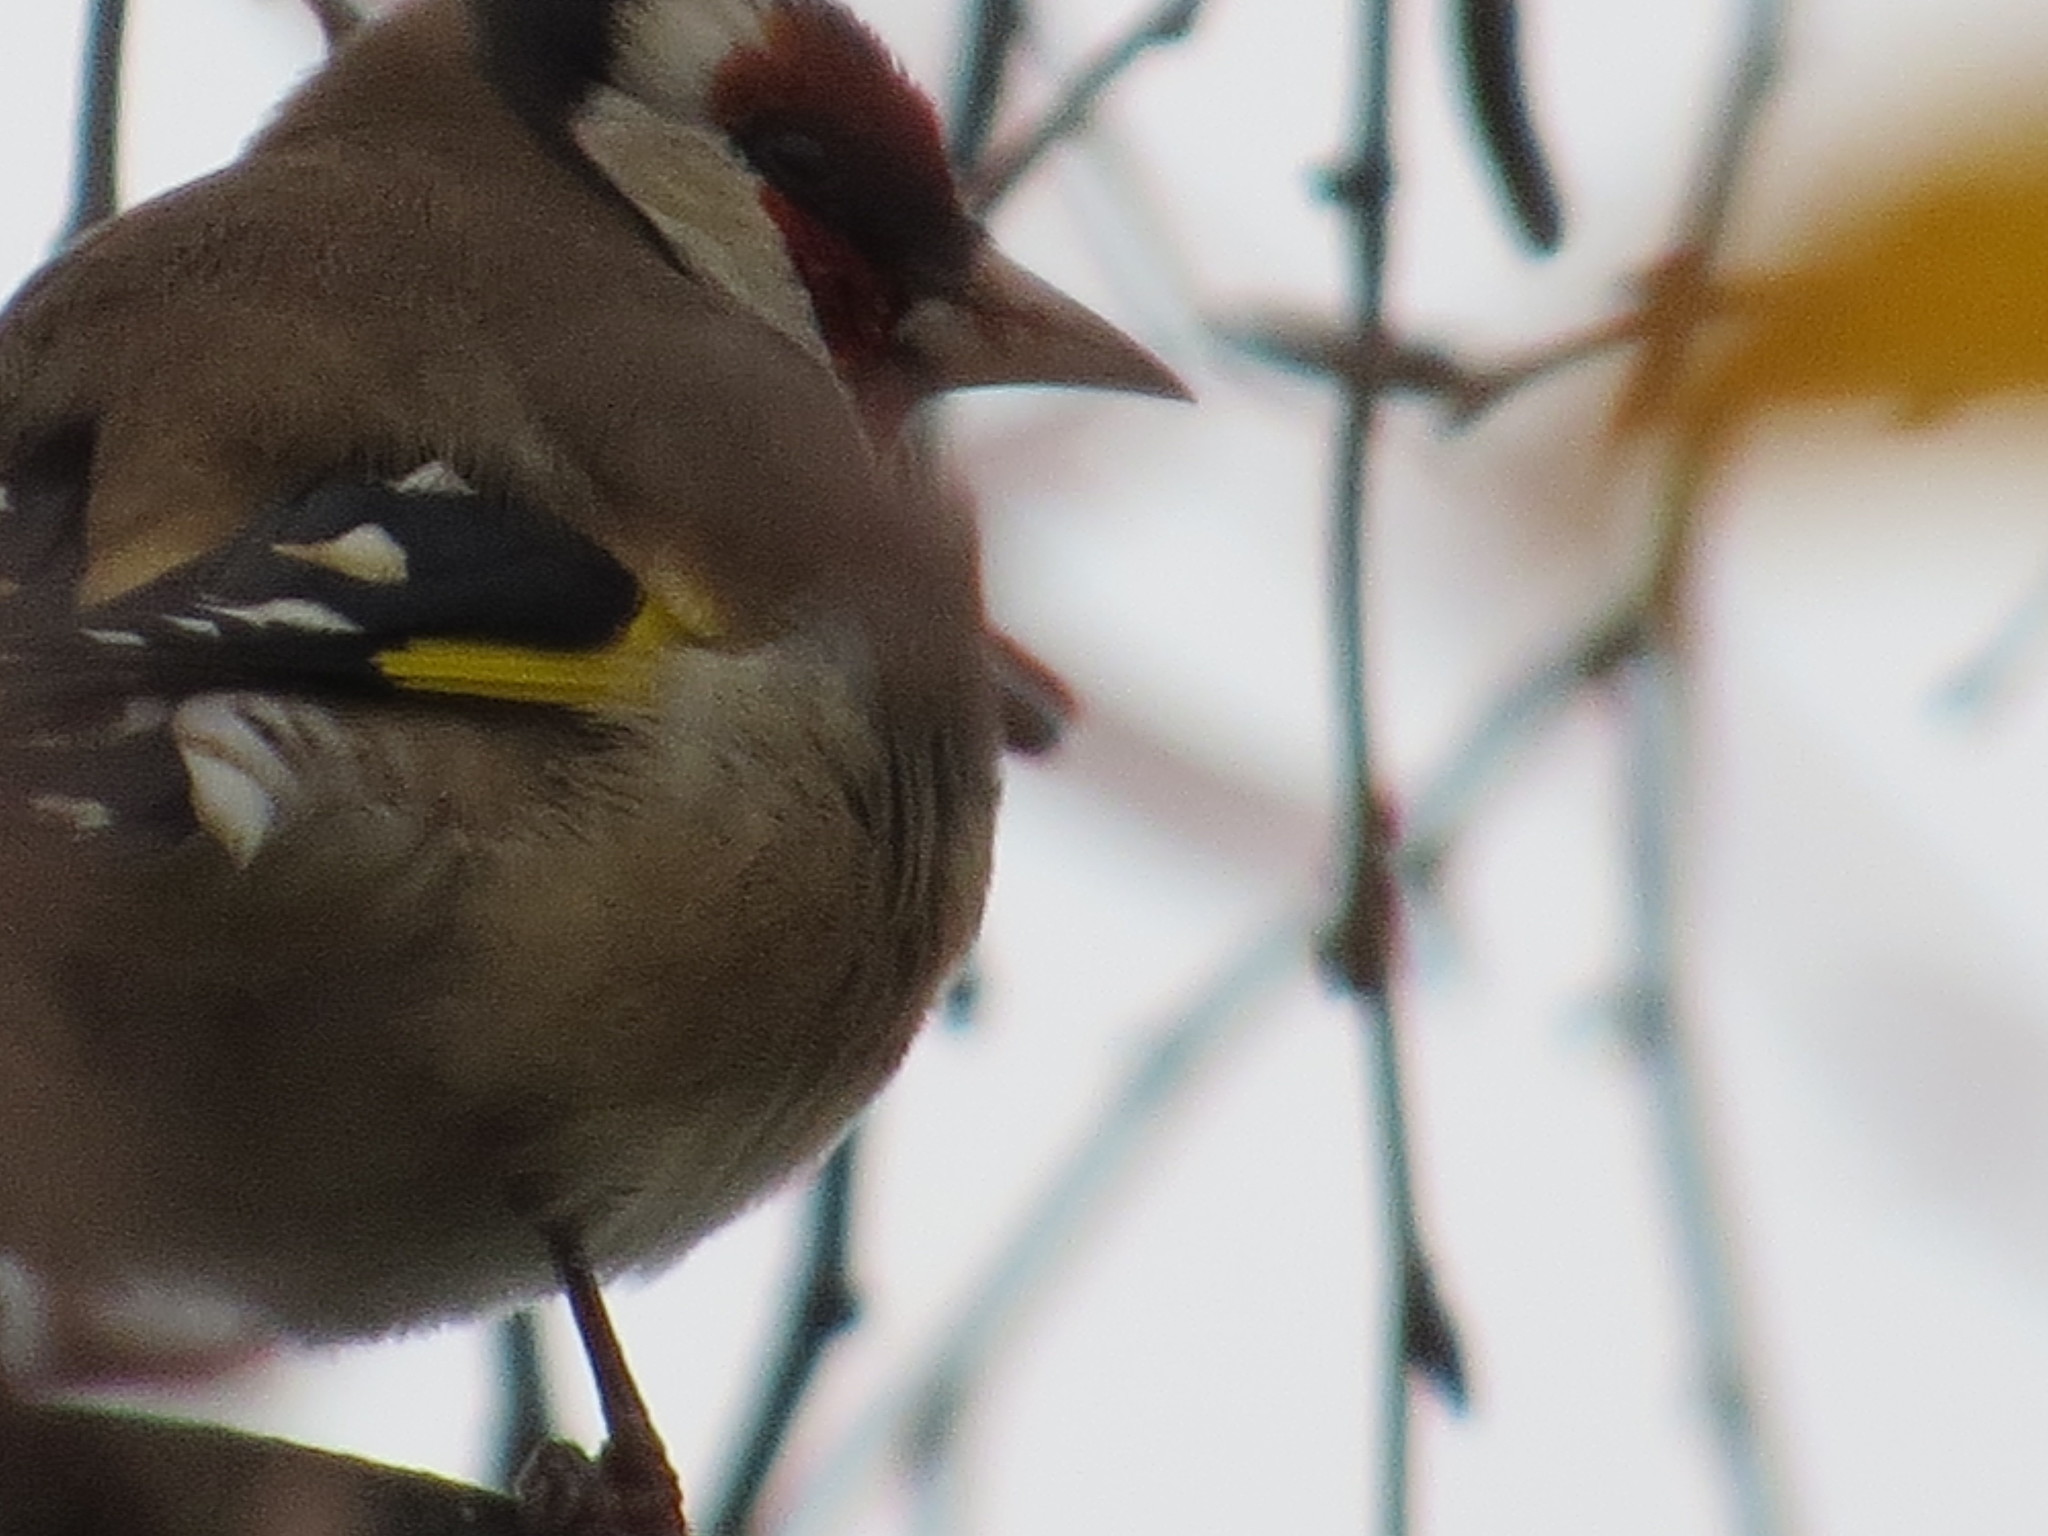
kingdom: Animalia
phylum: Chordata
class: Aves
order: Passeriformes
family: Fringillidae
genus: Carduelis
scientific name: Carduelis carduelis
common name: European goldfinch
